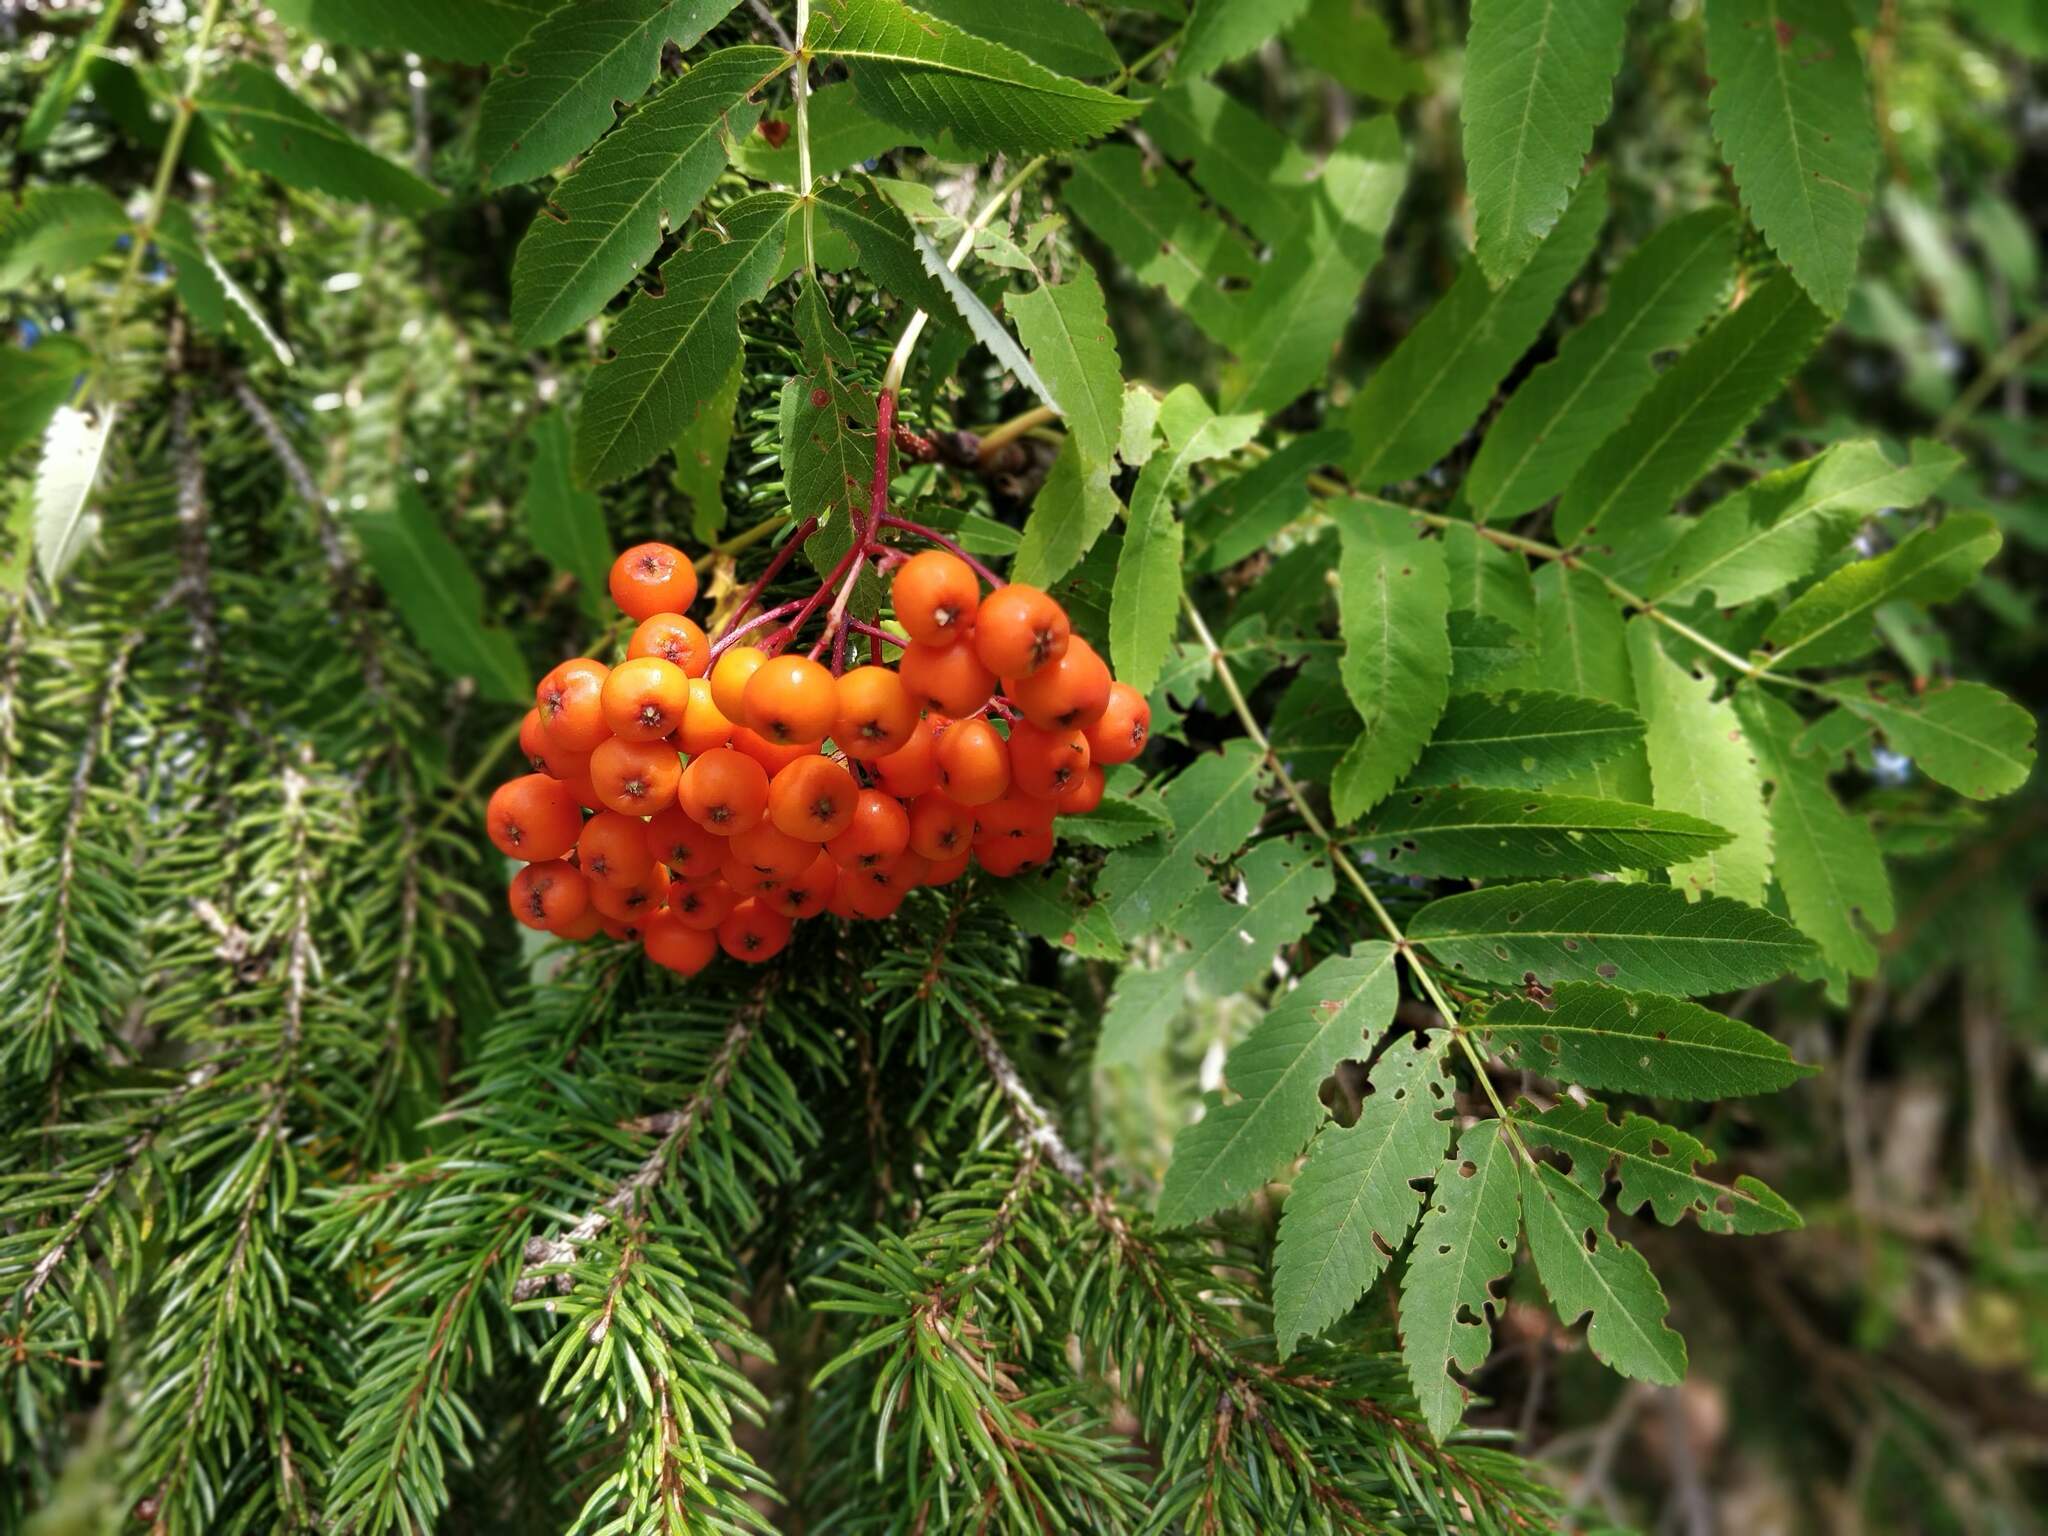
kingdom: Plantae
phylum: Tracheophyta
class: Magnoliopsida
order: Rosales
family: Rosaceae
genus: Sorbus
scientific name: Sorbus aucuparia
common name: Rowan
